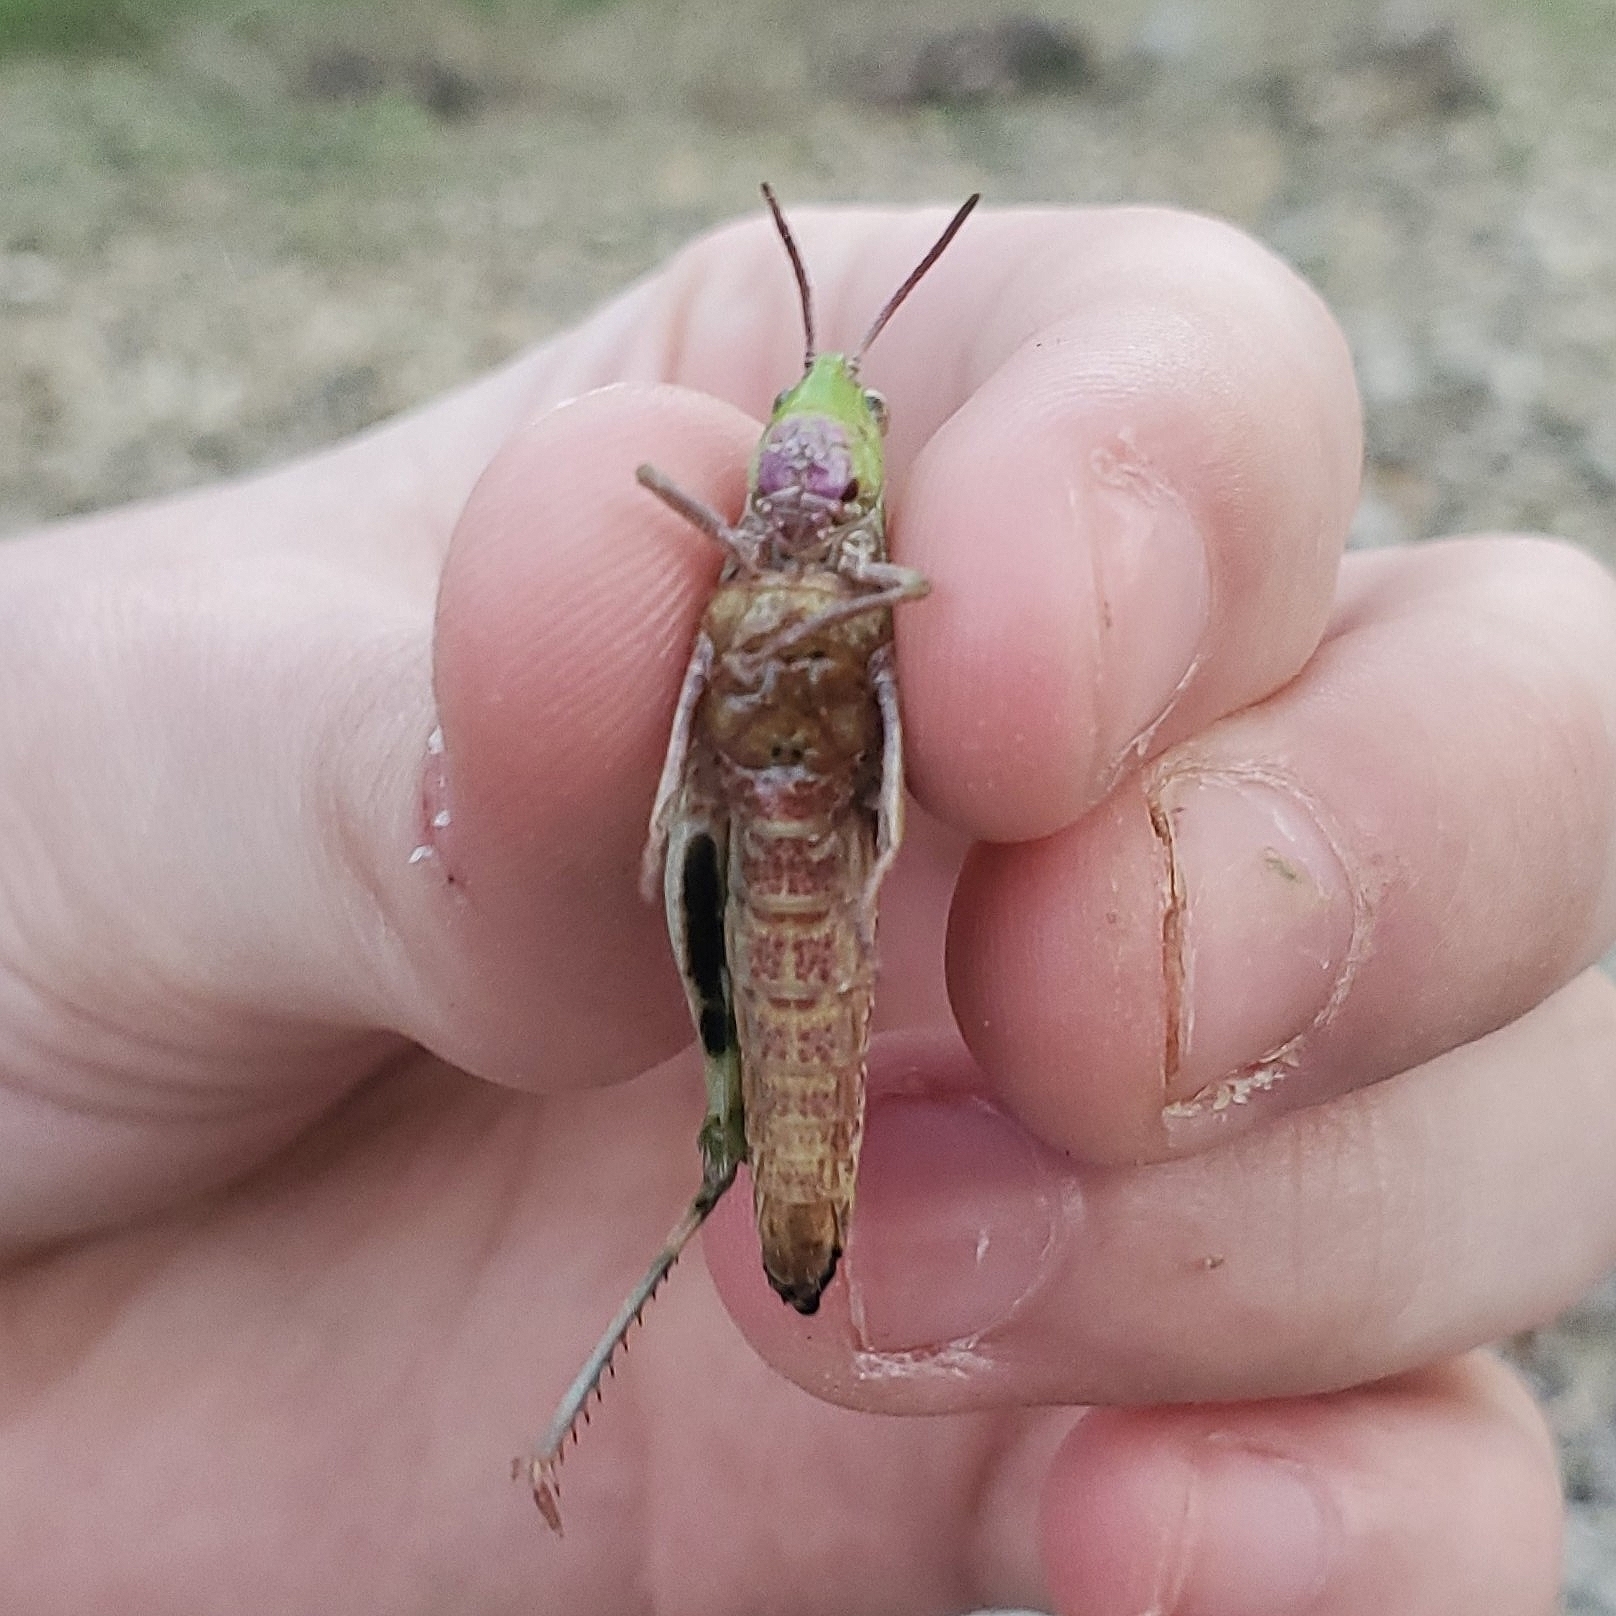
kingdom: Animalia
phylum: Arthropoda
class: Insecta
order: Orthoptera
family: Acrididae
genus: Chortophaga
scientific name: Chortophaga viridifasciata
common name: Green-striped grasshopper
